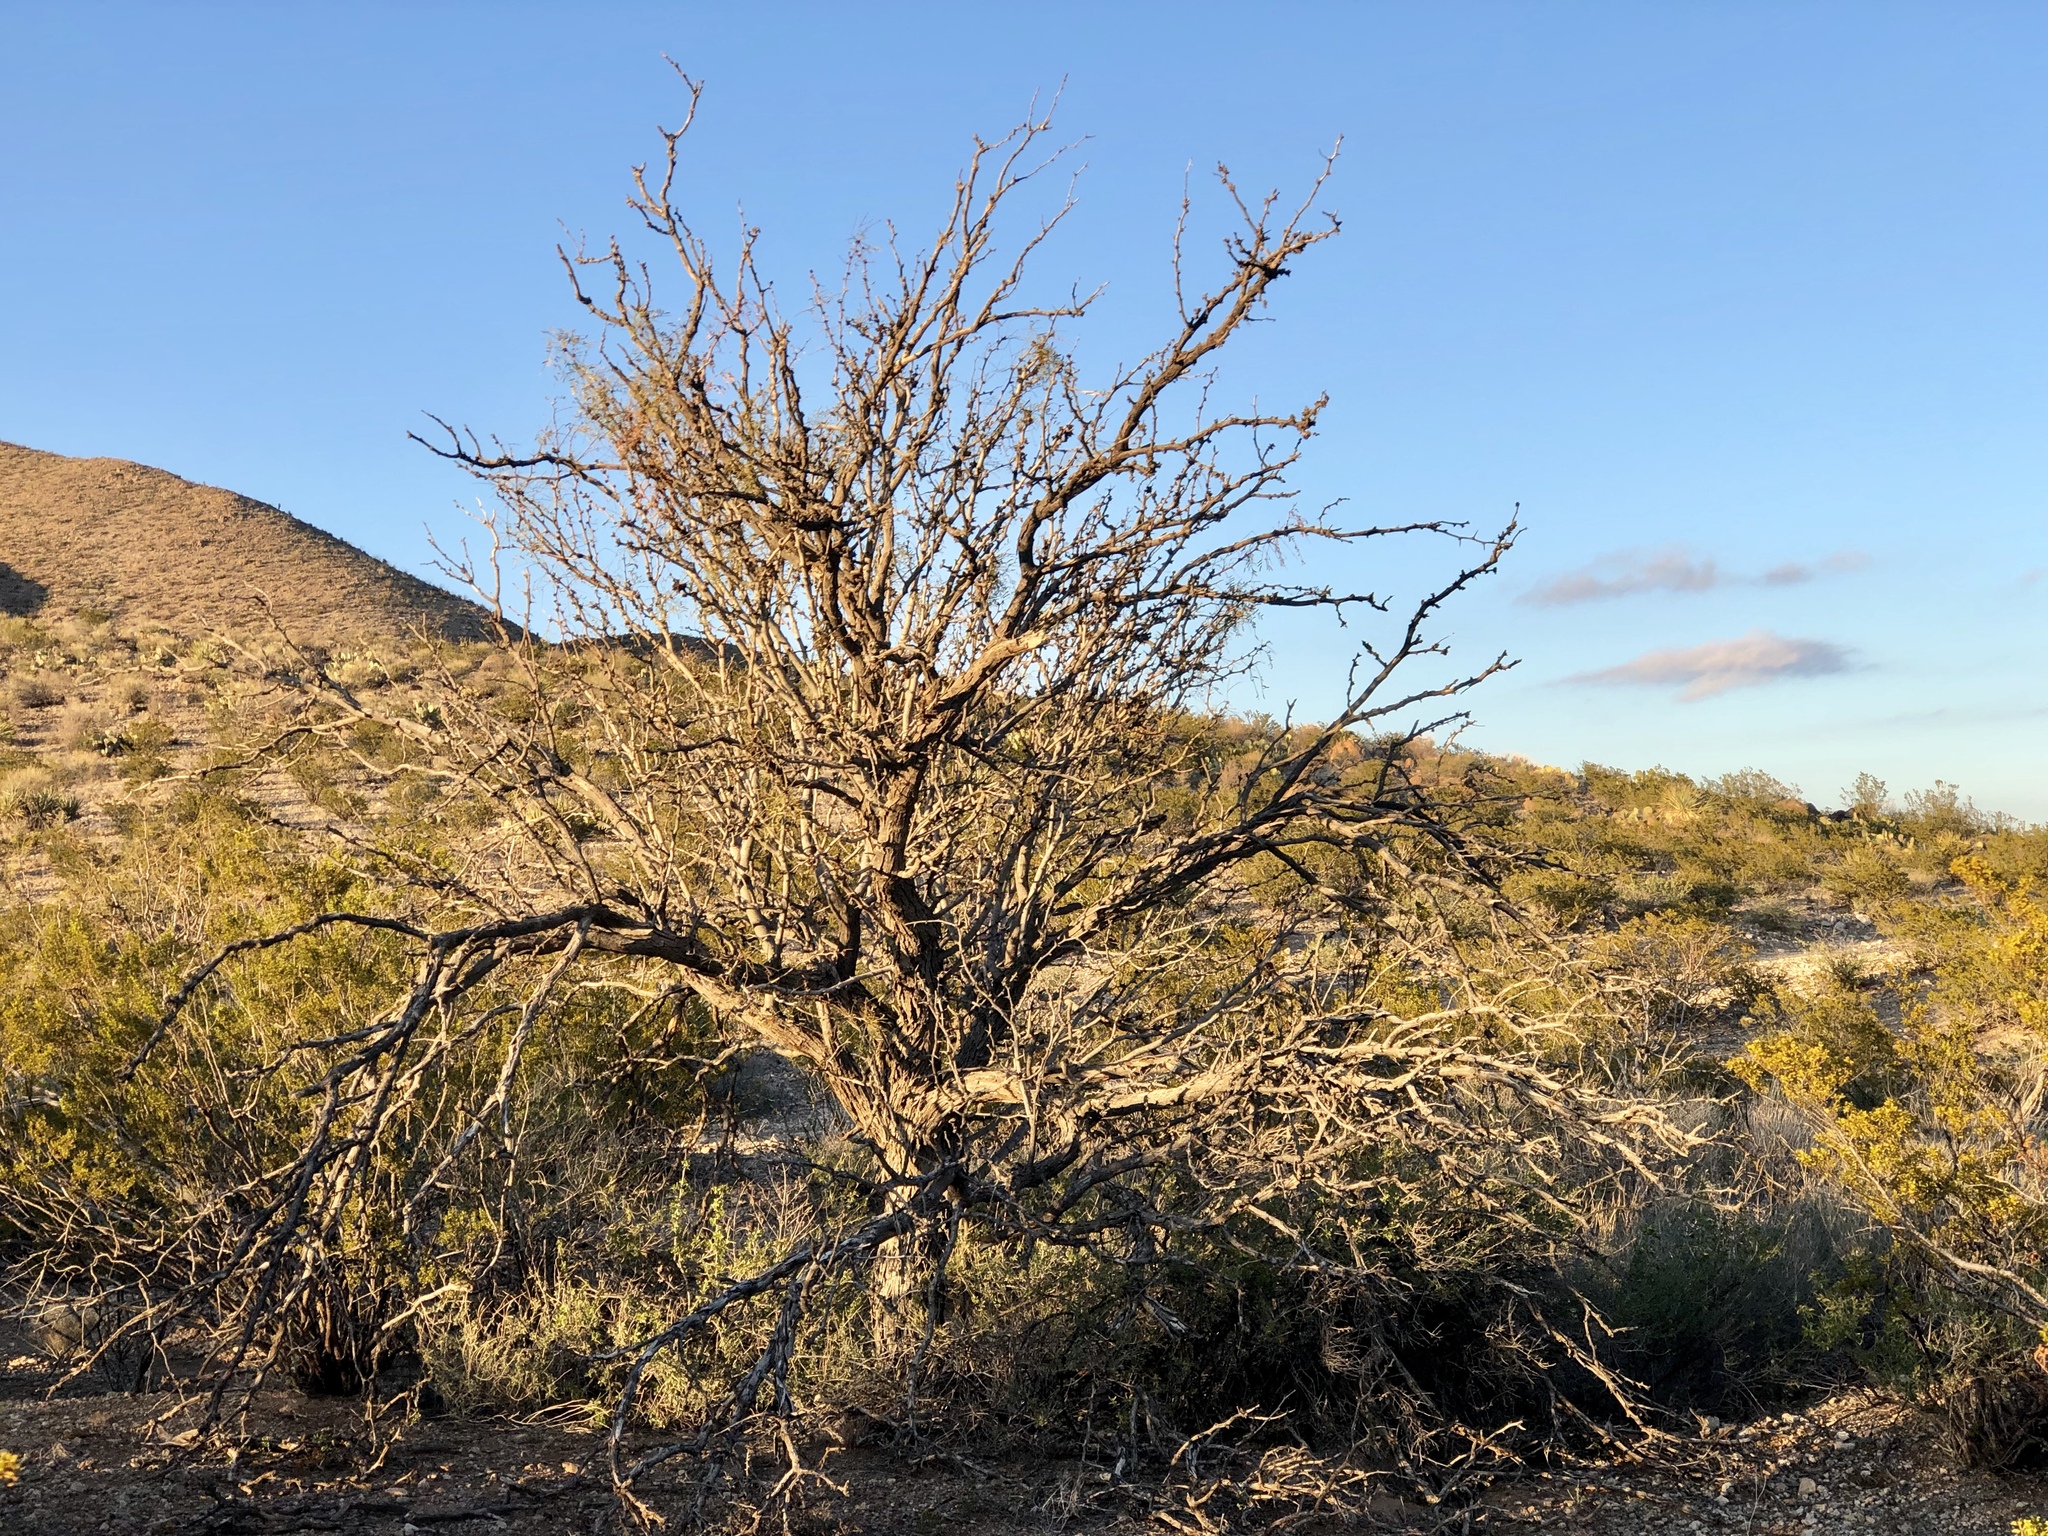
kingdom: Plantae
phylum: Tracheophyta
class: Magnoliopsida
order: Fabales
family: Fabaceae
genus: Prosopis
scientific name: Prosopis glandulosa
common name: Honey mesquite
